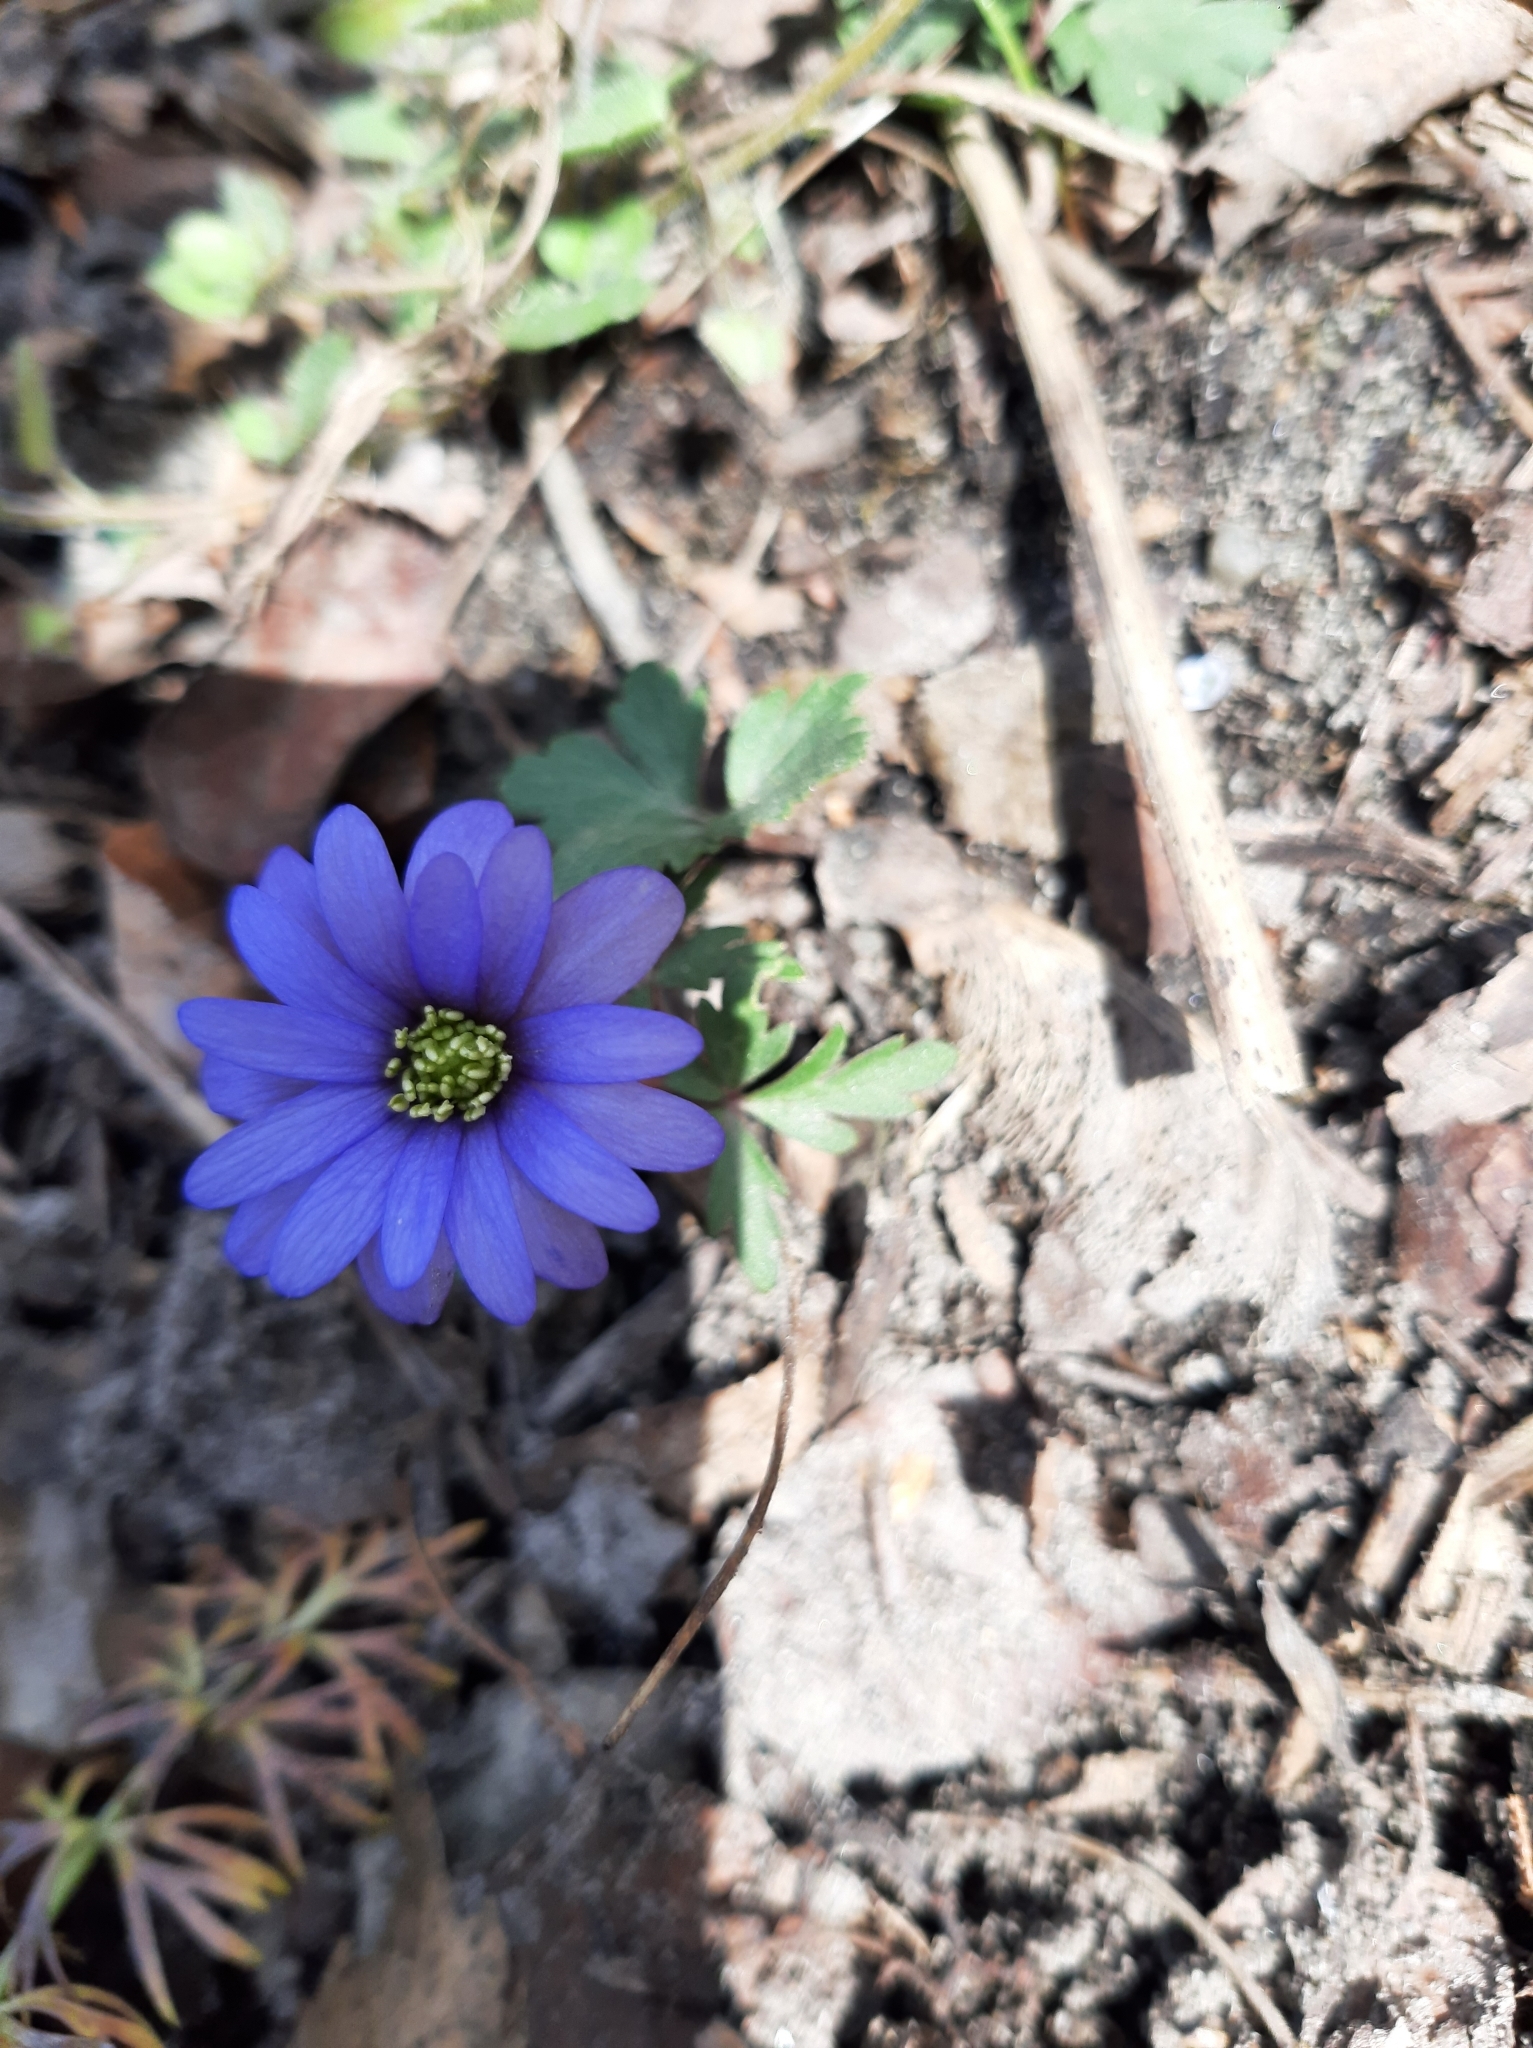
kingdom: Plantae
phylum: Tracheophyta
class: Magnoliopsida
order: Ranunculales
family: Ranunculaceae
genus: Anemone
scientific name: Anemone blanda
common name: Balkan anemone
